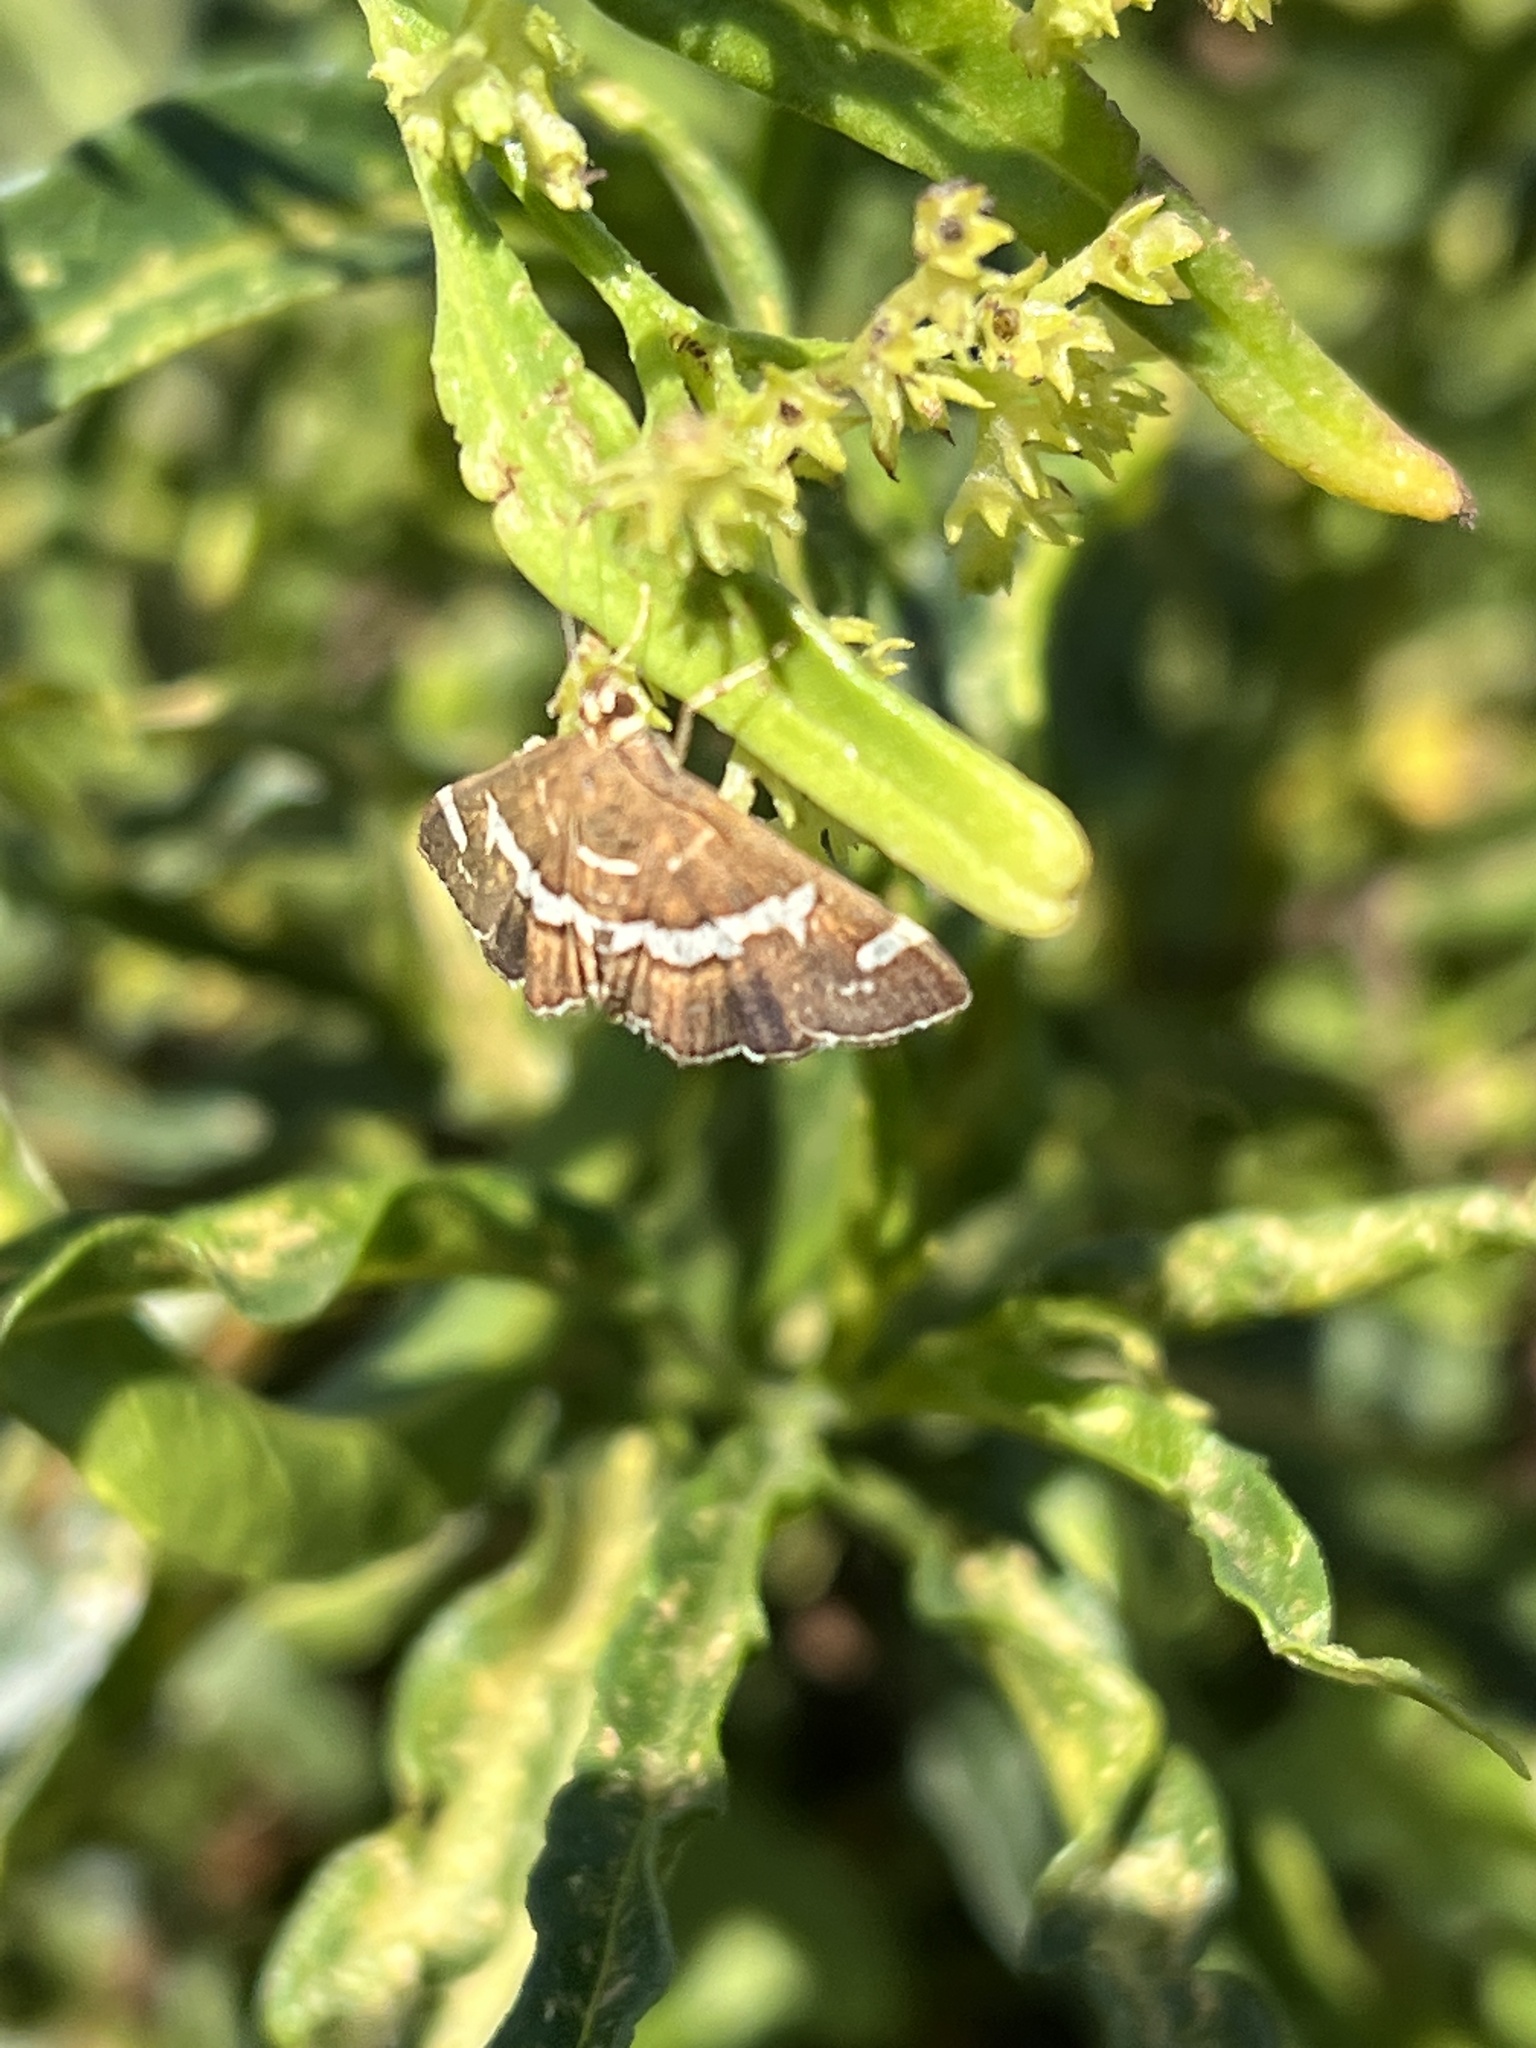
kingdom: Animalia
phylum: Arthropoda
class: Insecta
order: Lepidoptera
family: Crambidae
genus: Spoladea
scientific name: Spoladea recurvalis
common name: Beet webworm moth
